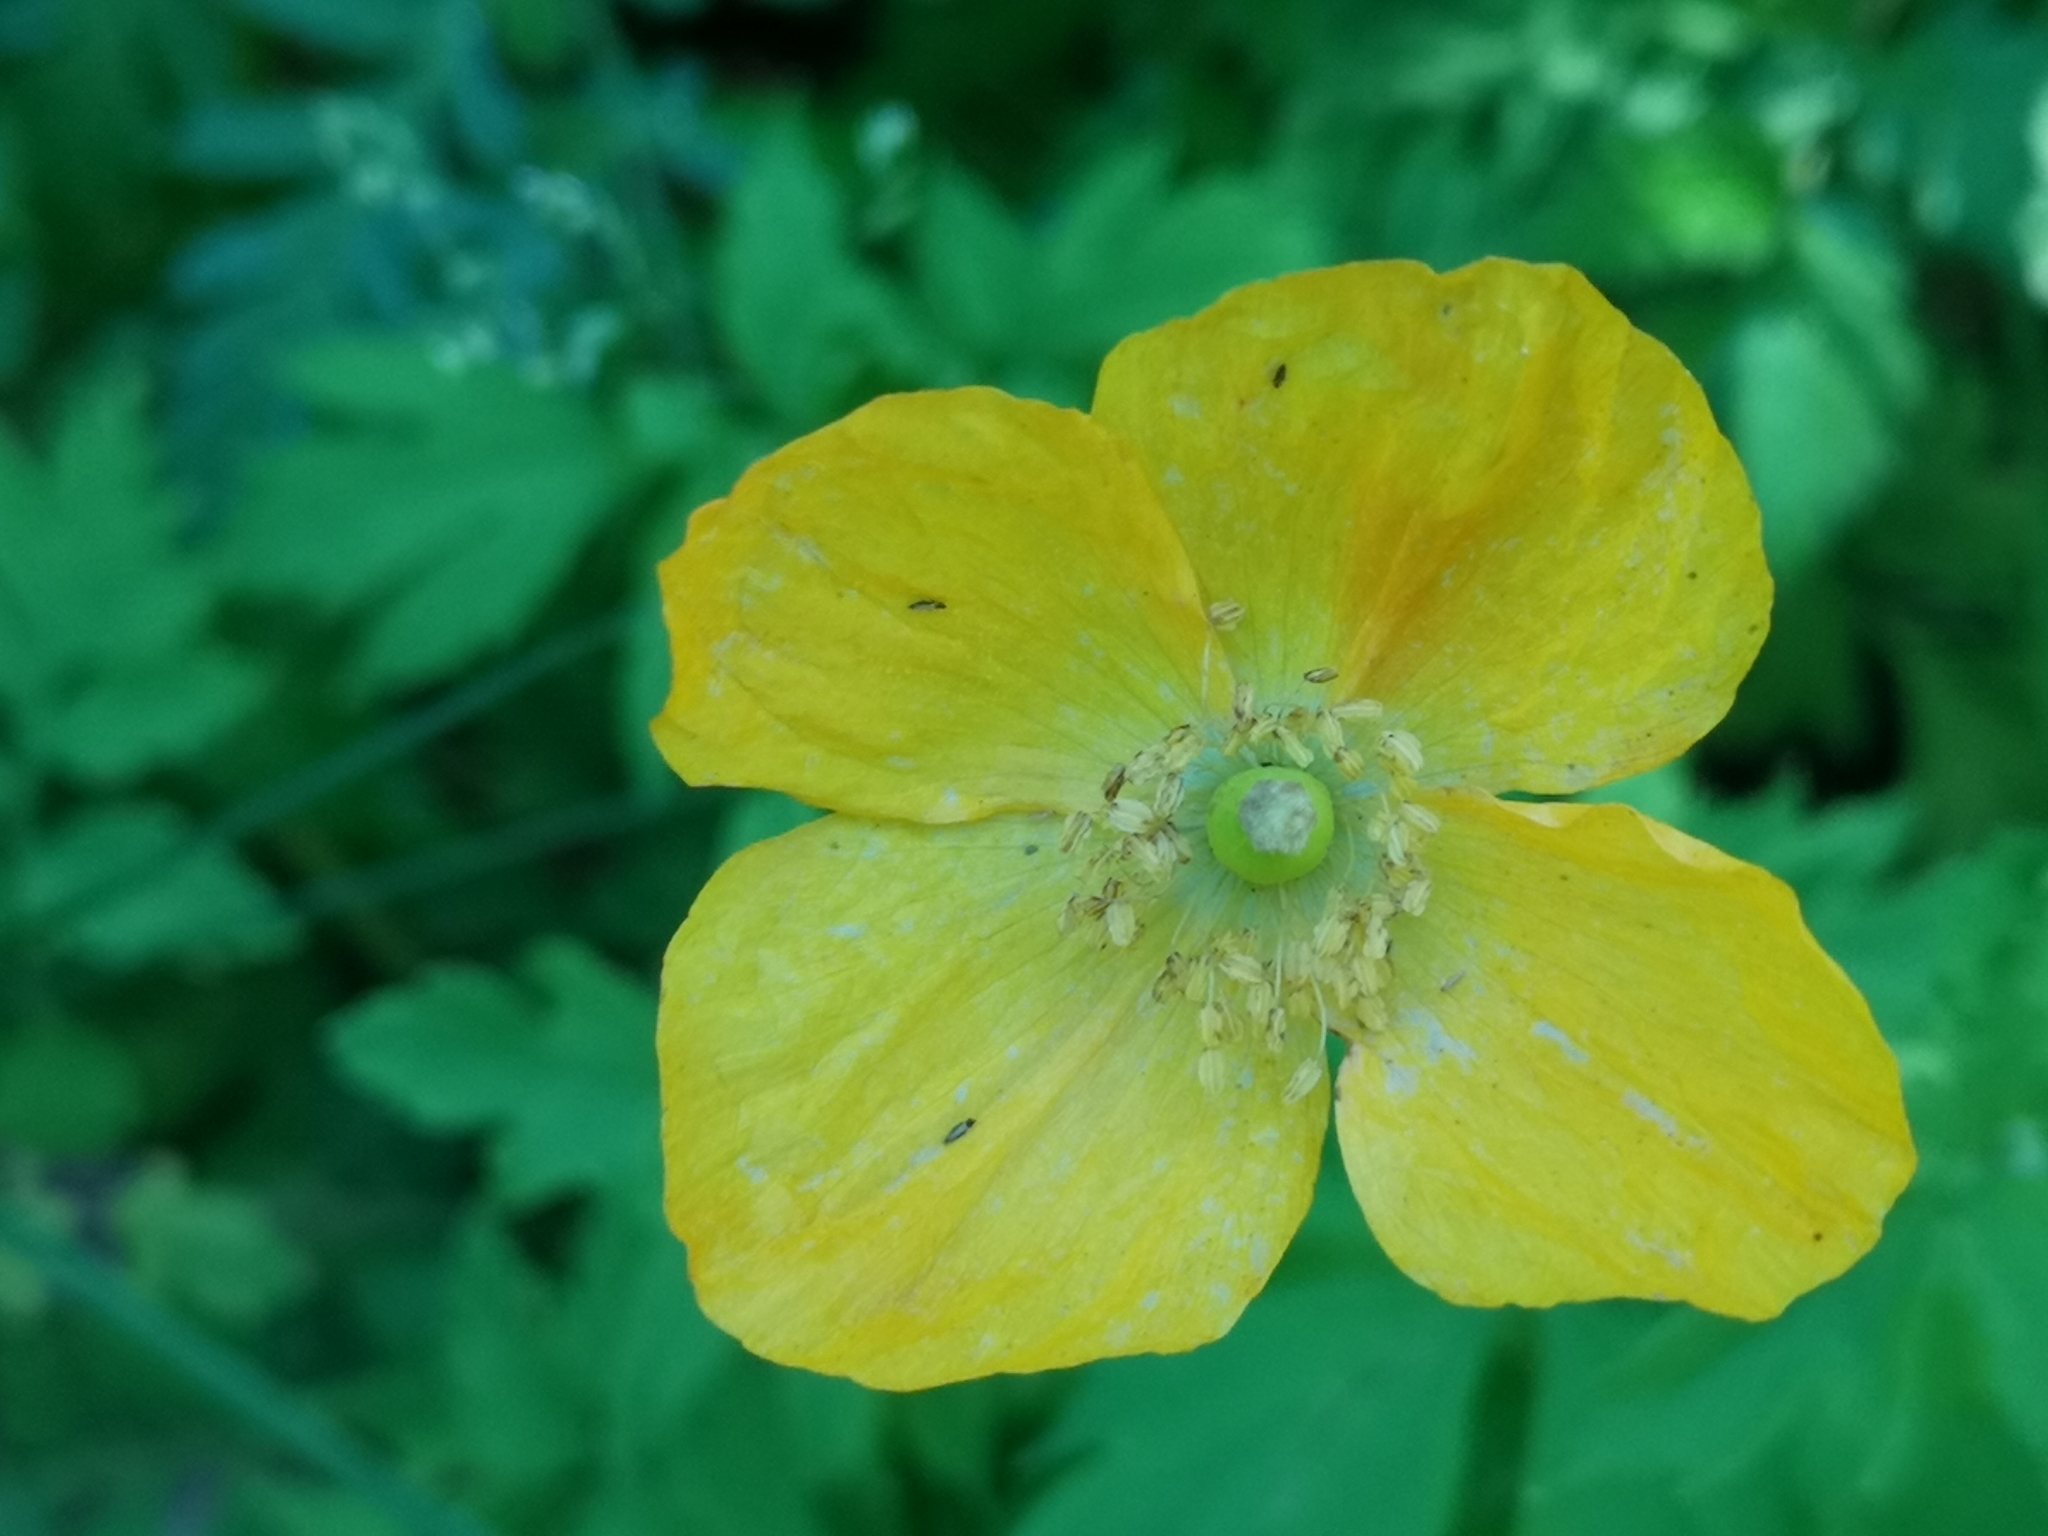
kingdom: Plantae
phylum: Tracheophyta
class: Magnoliopsida
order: Ranunculales
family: Papaveraceae
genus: Papaver
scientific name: Papaver cambricum
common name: Poppy
